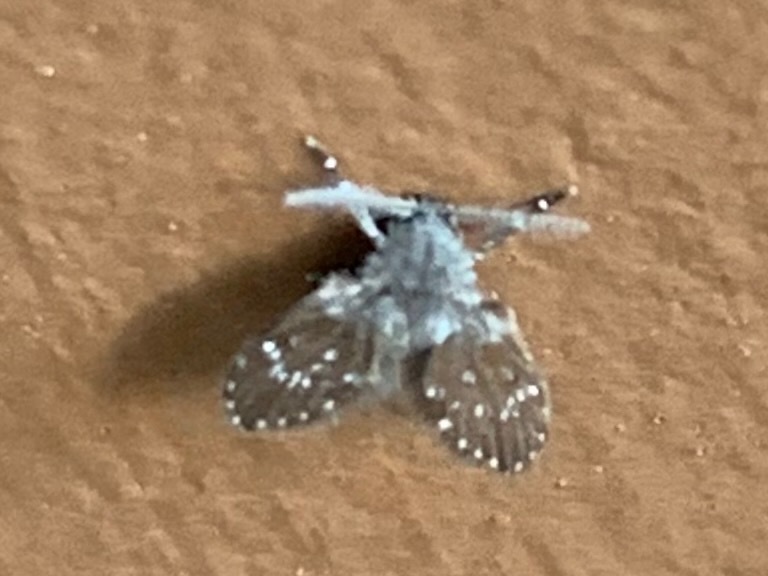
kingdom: Animalia
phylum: Arthropoda
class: Insecta
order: Diptera
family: Psychodidae
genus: Clogmia
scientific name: Clogmia albipunctatus
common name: White-spotted moth fly
